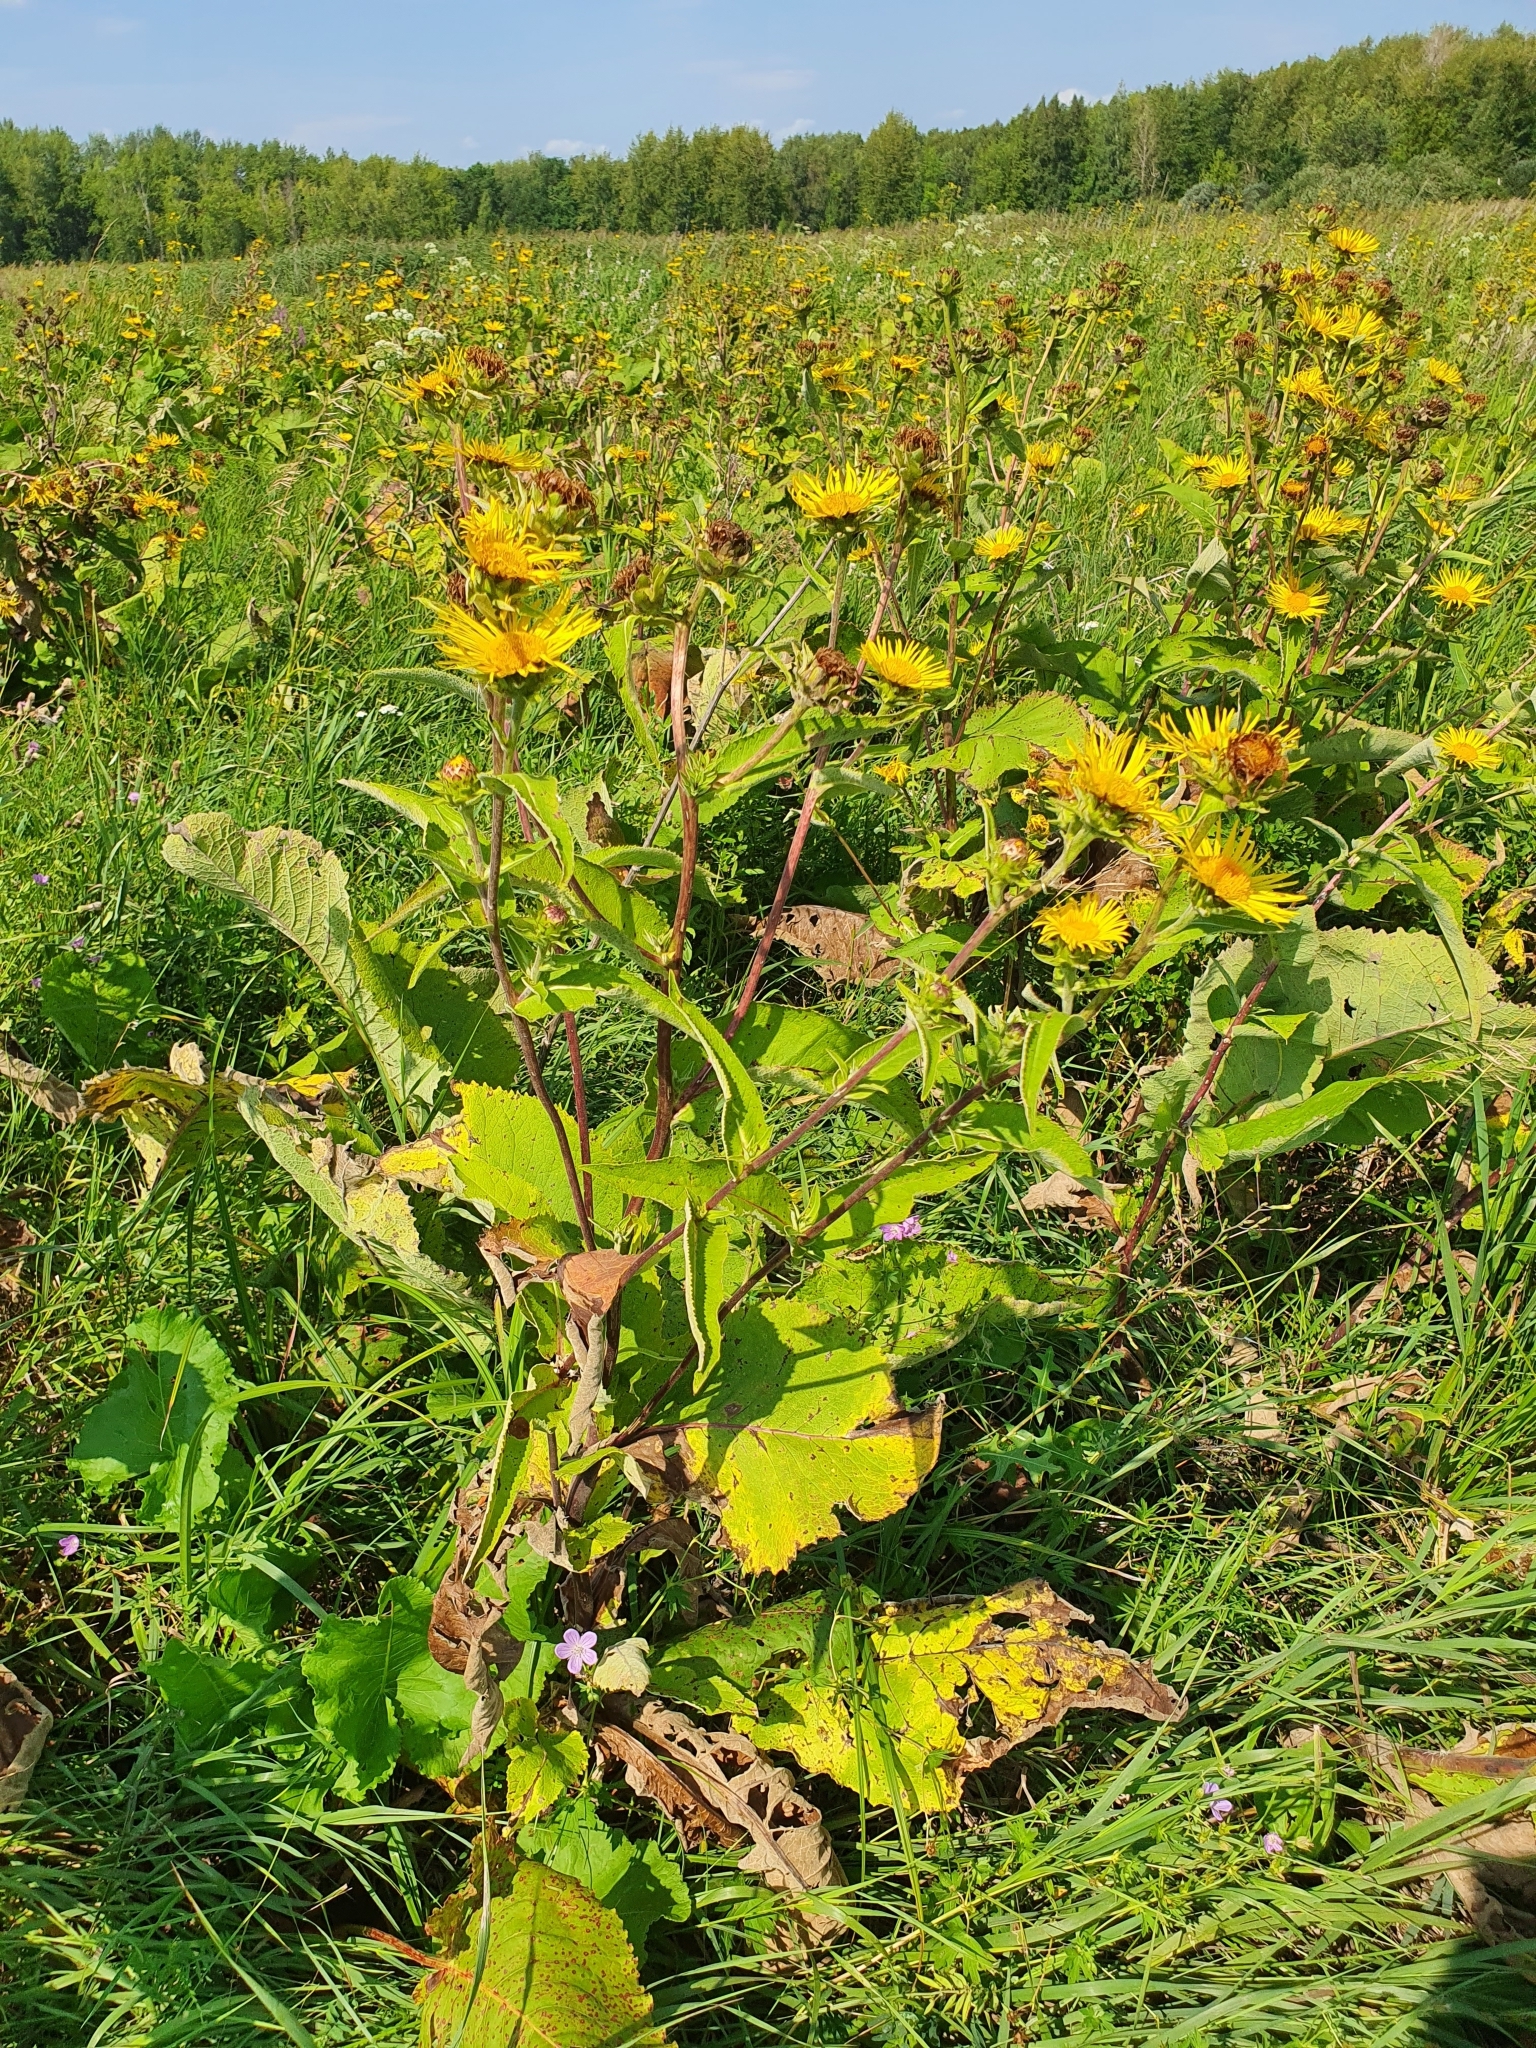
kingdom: Plantae
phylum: Tracheophyta
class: Magnoliopsida
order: Asterales
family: Asteraceae
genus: Inula
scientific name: Inula helenium
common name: Elecampane
